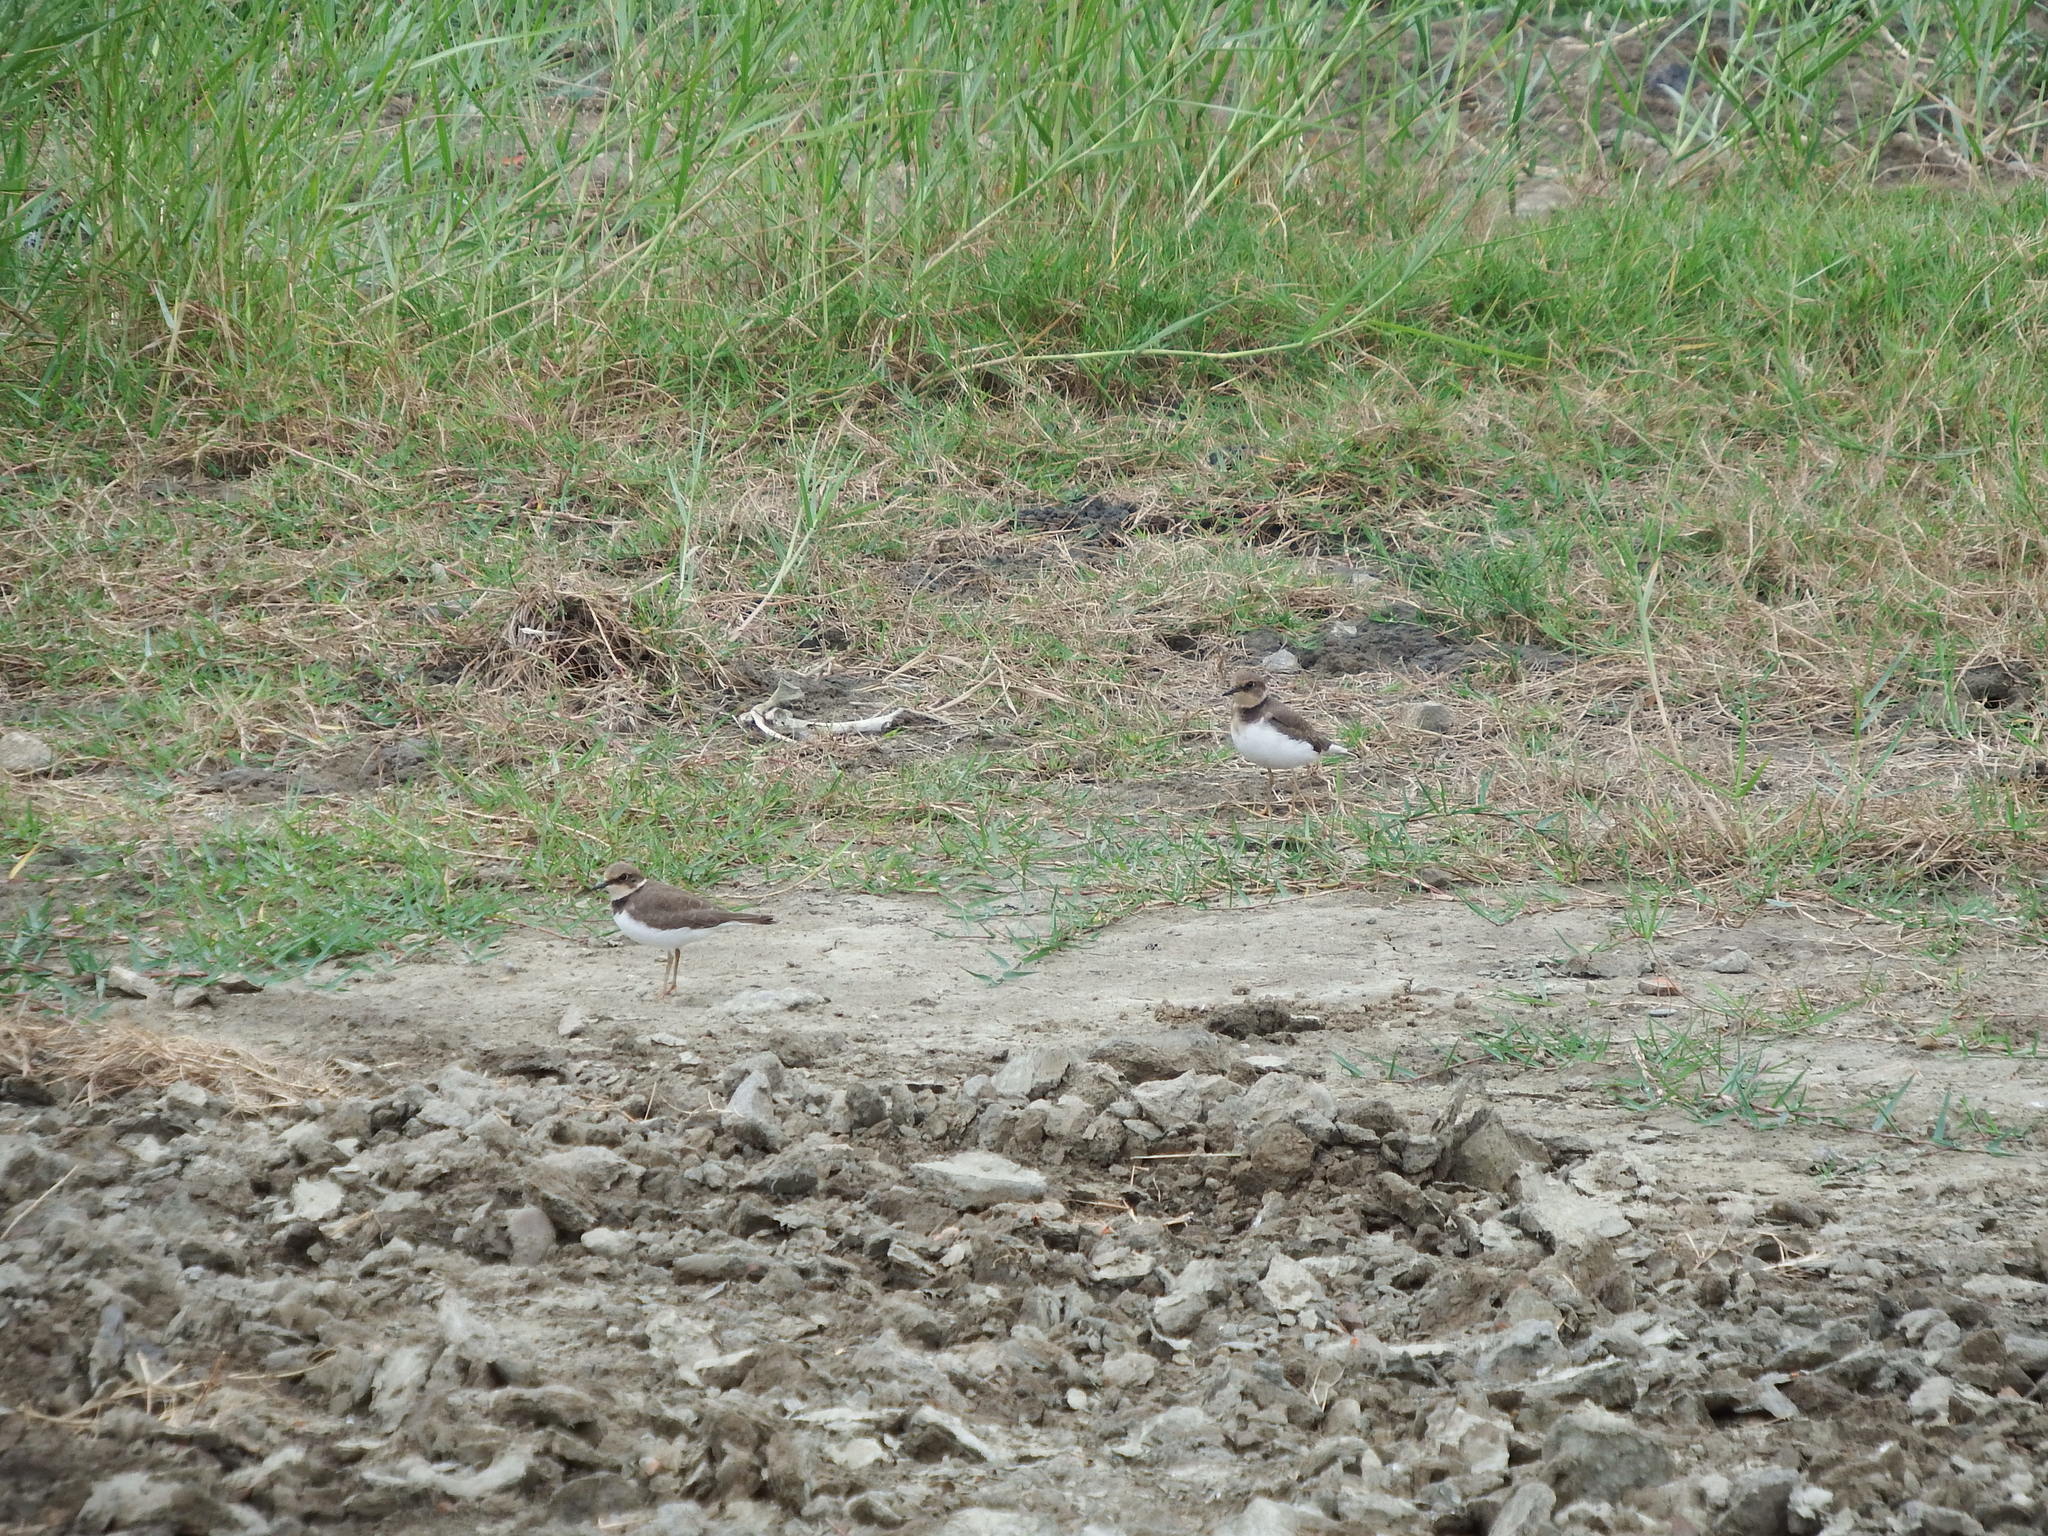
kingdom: Animalia
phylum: Chordata
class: Aves
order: Charadriiformes
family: Charadriidae
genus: Charadrius
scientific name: Charadrius dubius
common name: Little ringed plover
